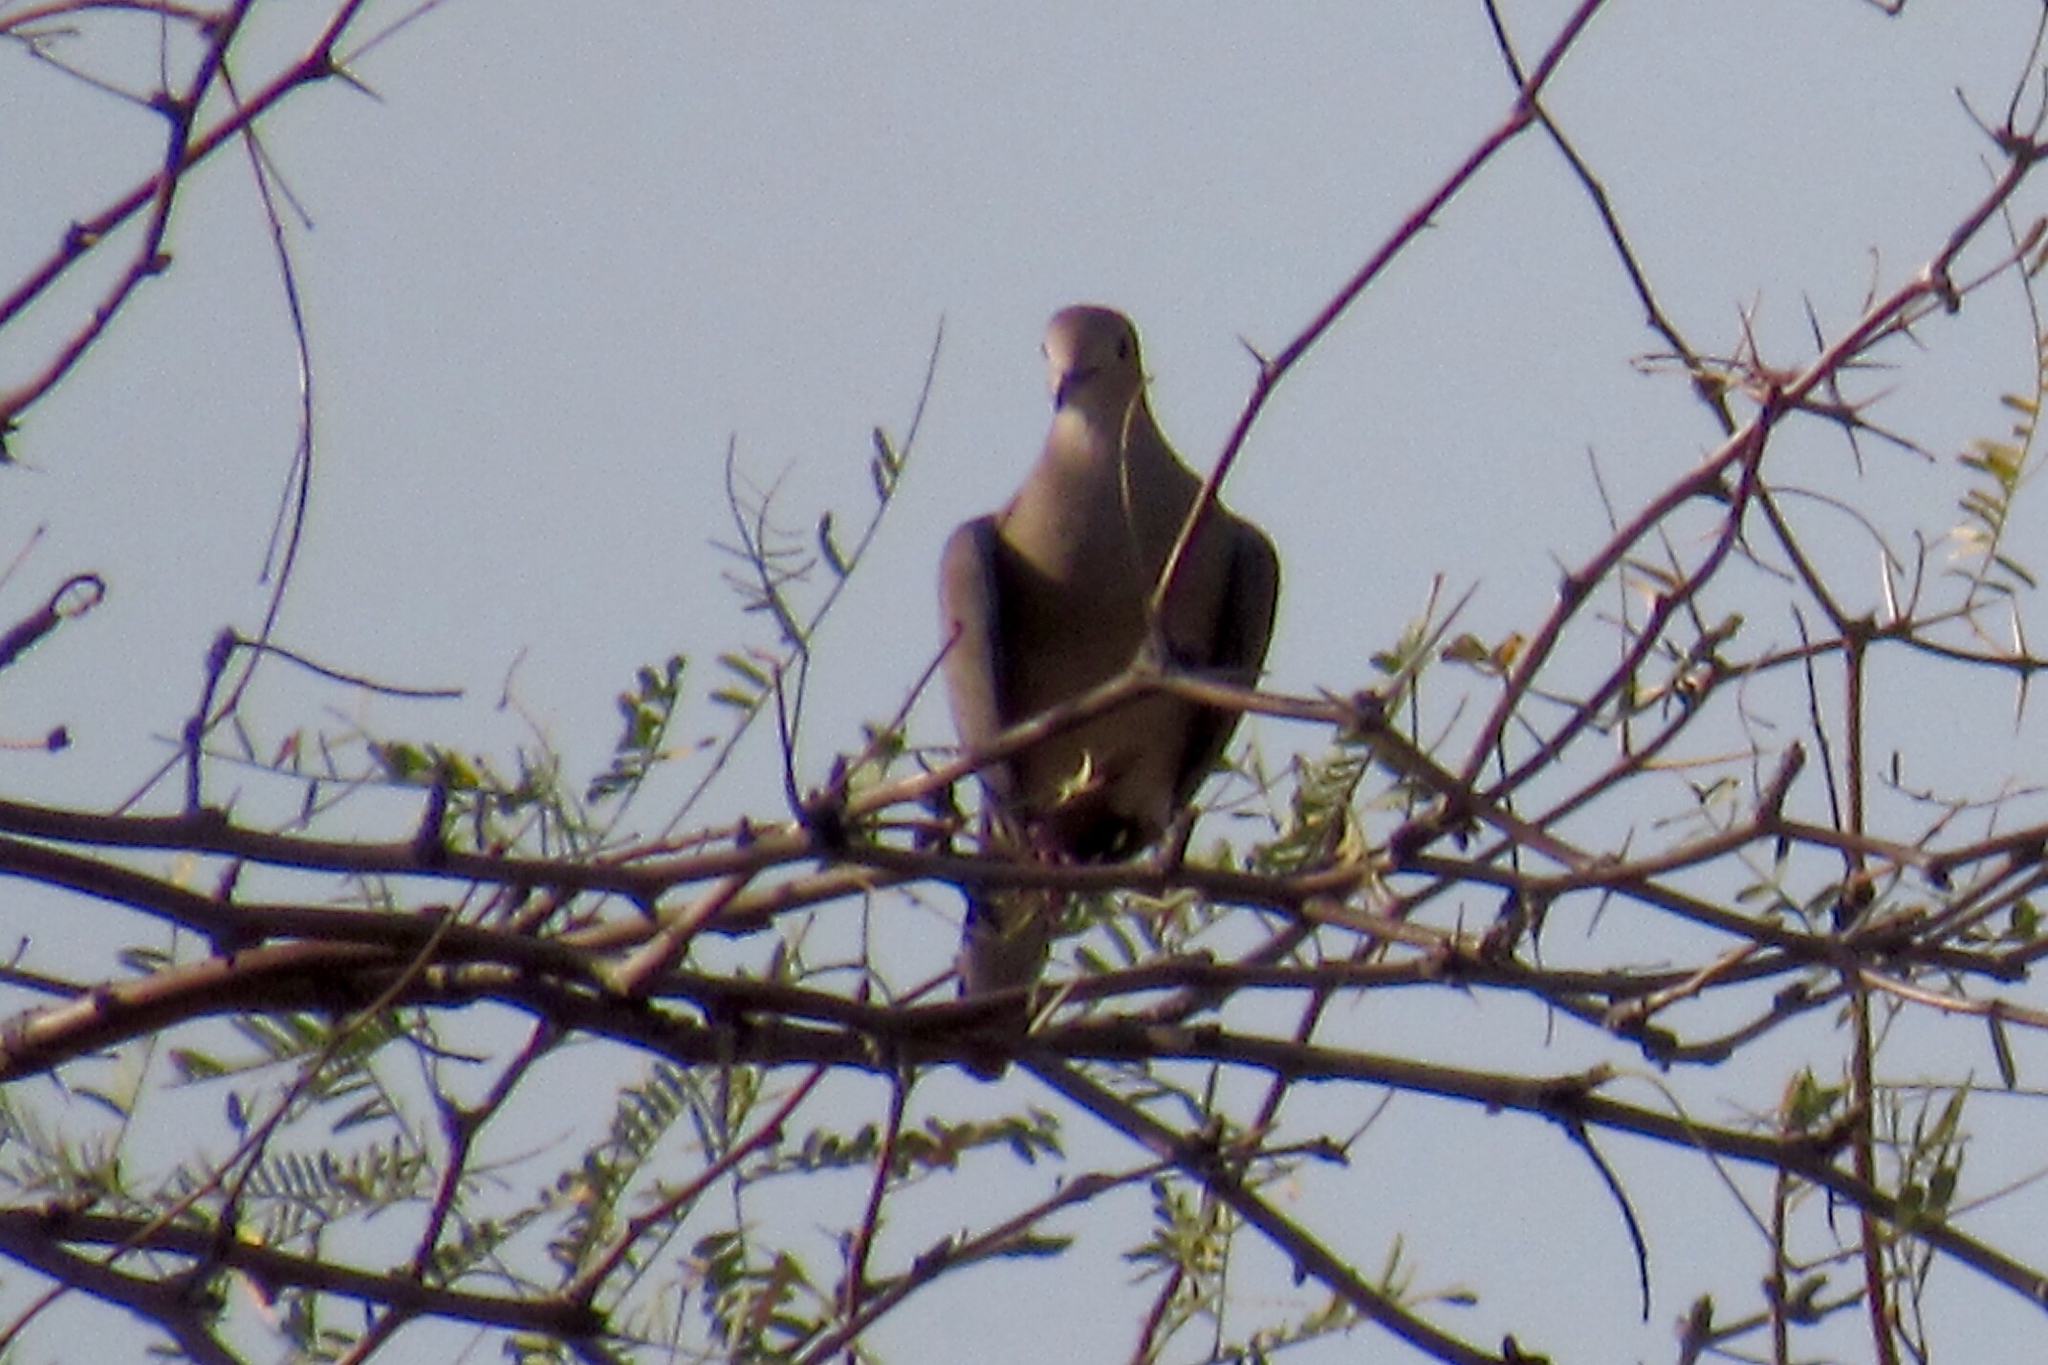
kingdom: Animalia
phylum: Chordata
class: Aves
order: Columbiformes
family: Columbidae
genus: Zenaida
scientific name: Zenaida macroura
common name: Mourning dove
